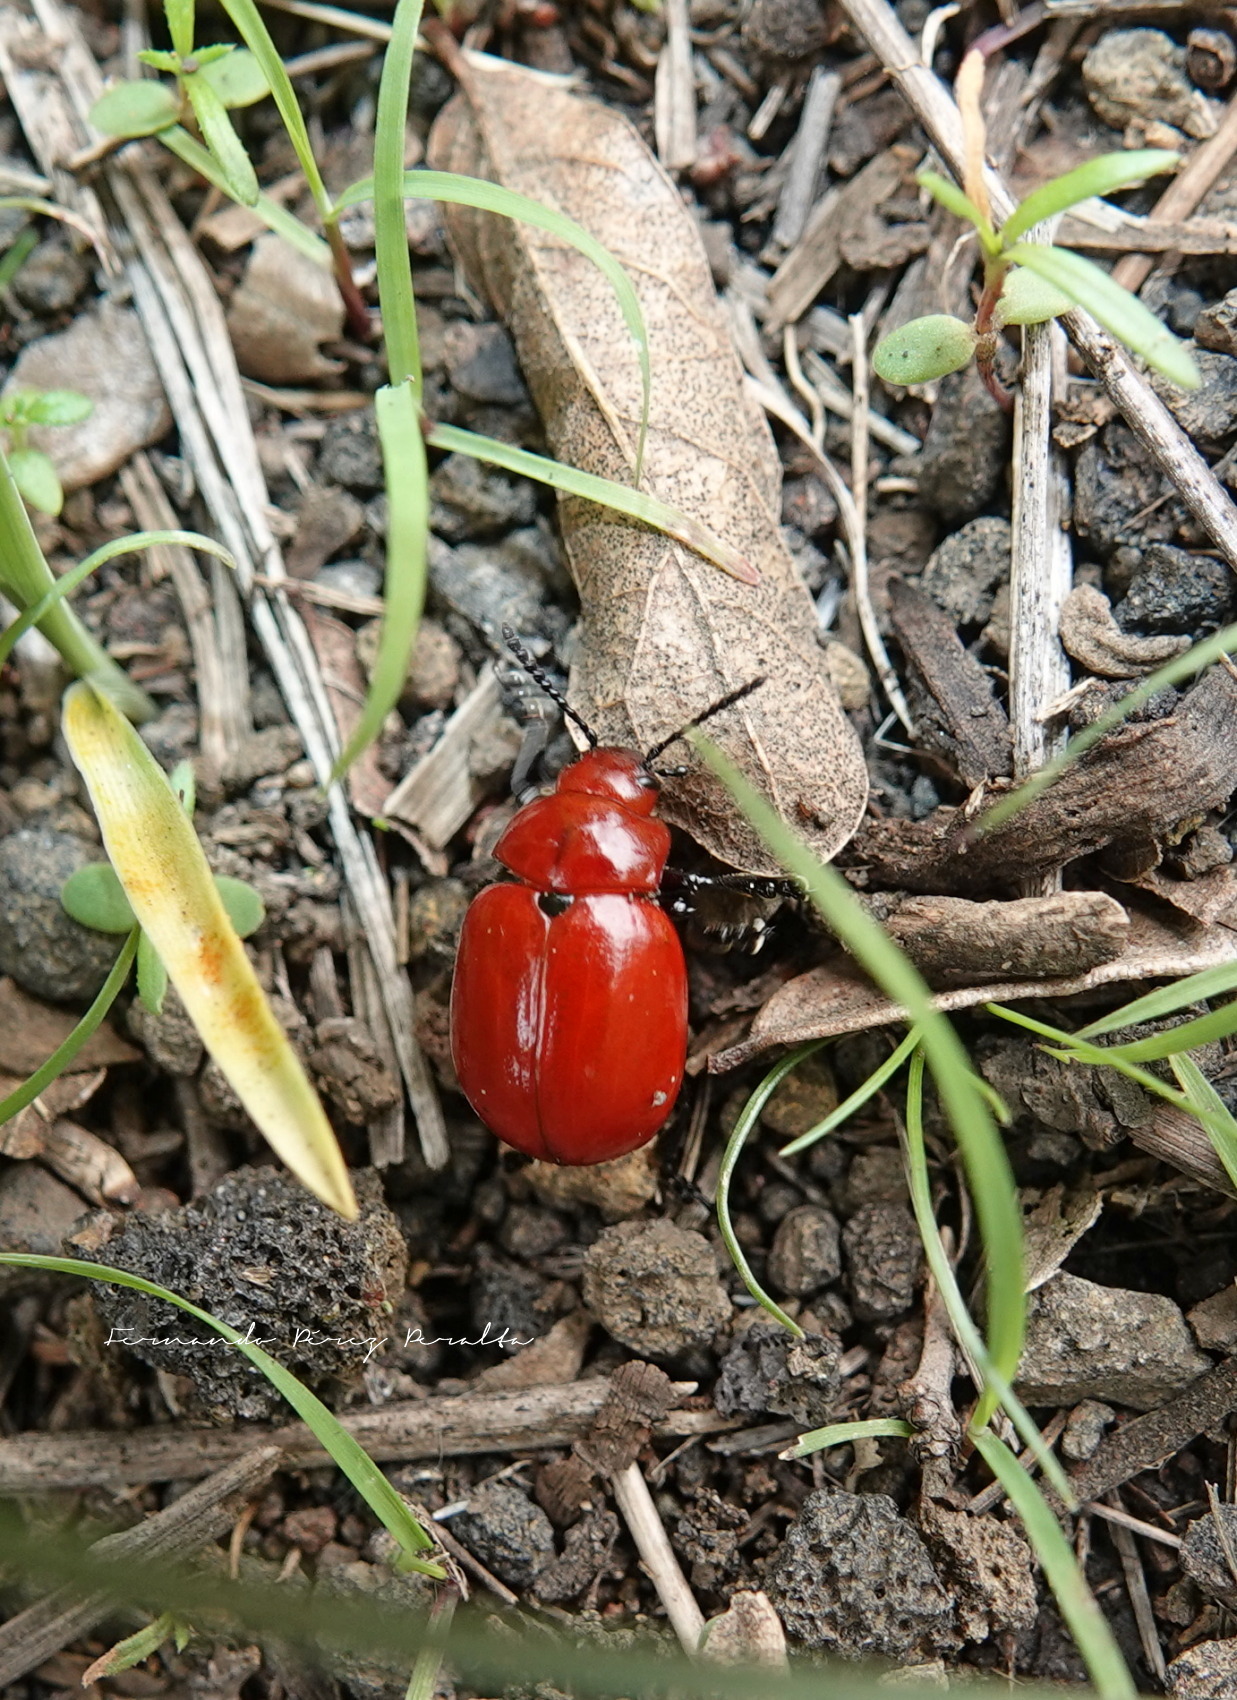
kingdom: Animalia
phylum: Arthropoda
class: Insecta
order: Coleoptera
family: Chrysomelidae
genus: Leptinotarsa
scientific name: Leptinotarsa rubiginosa
